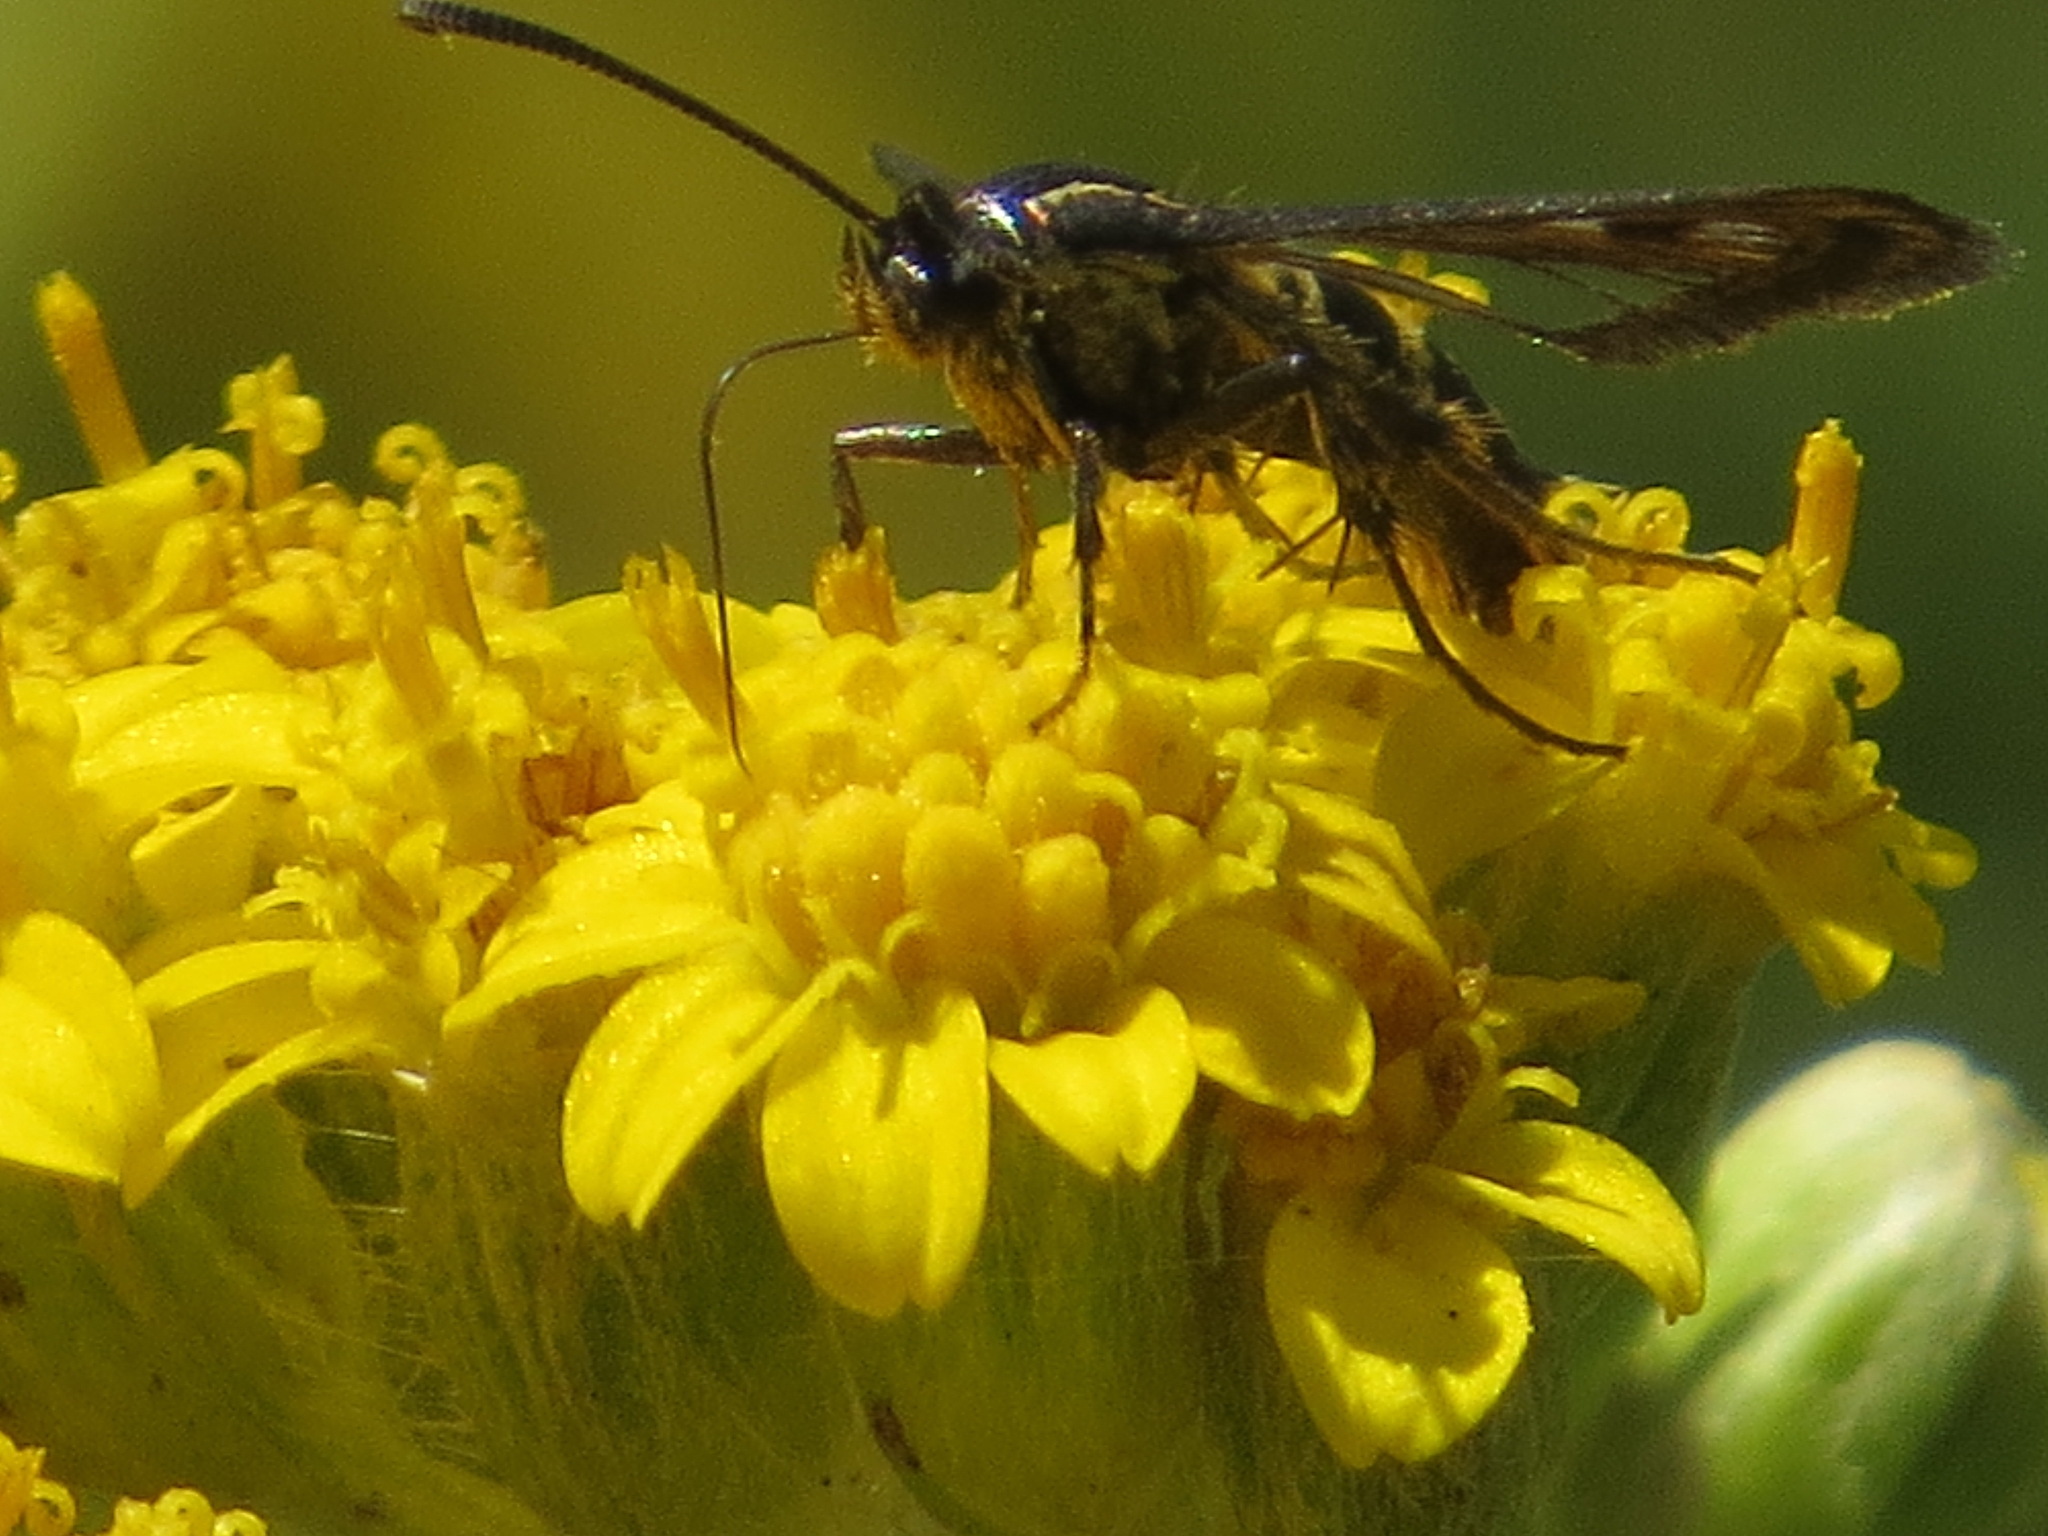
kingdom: Animalia
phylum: Arthropoda
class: Insecta
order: Lepidoptera
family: Sesiidae
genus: Synanthedon
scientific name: Synanthedon bibionipennis
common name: Strawberry crown moth
